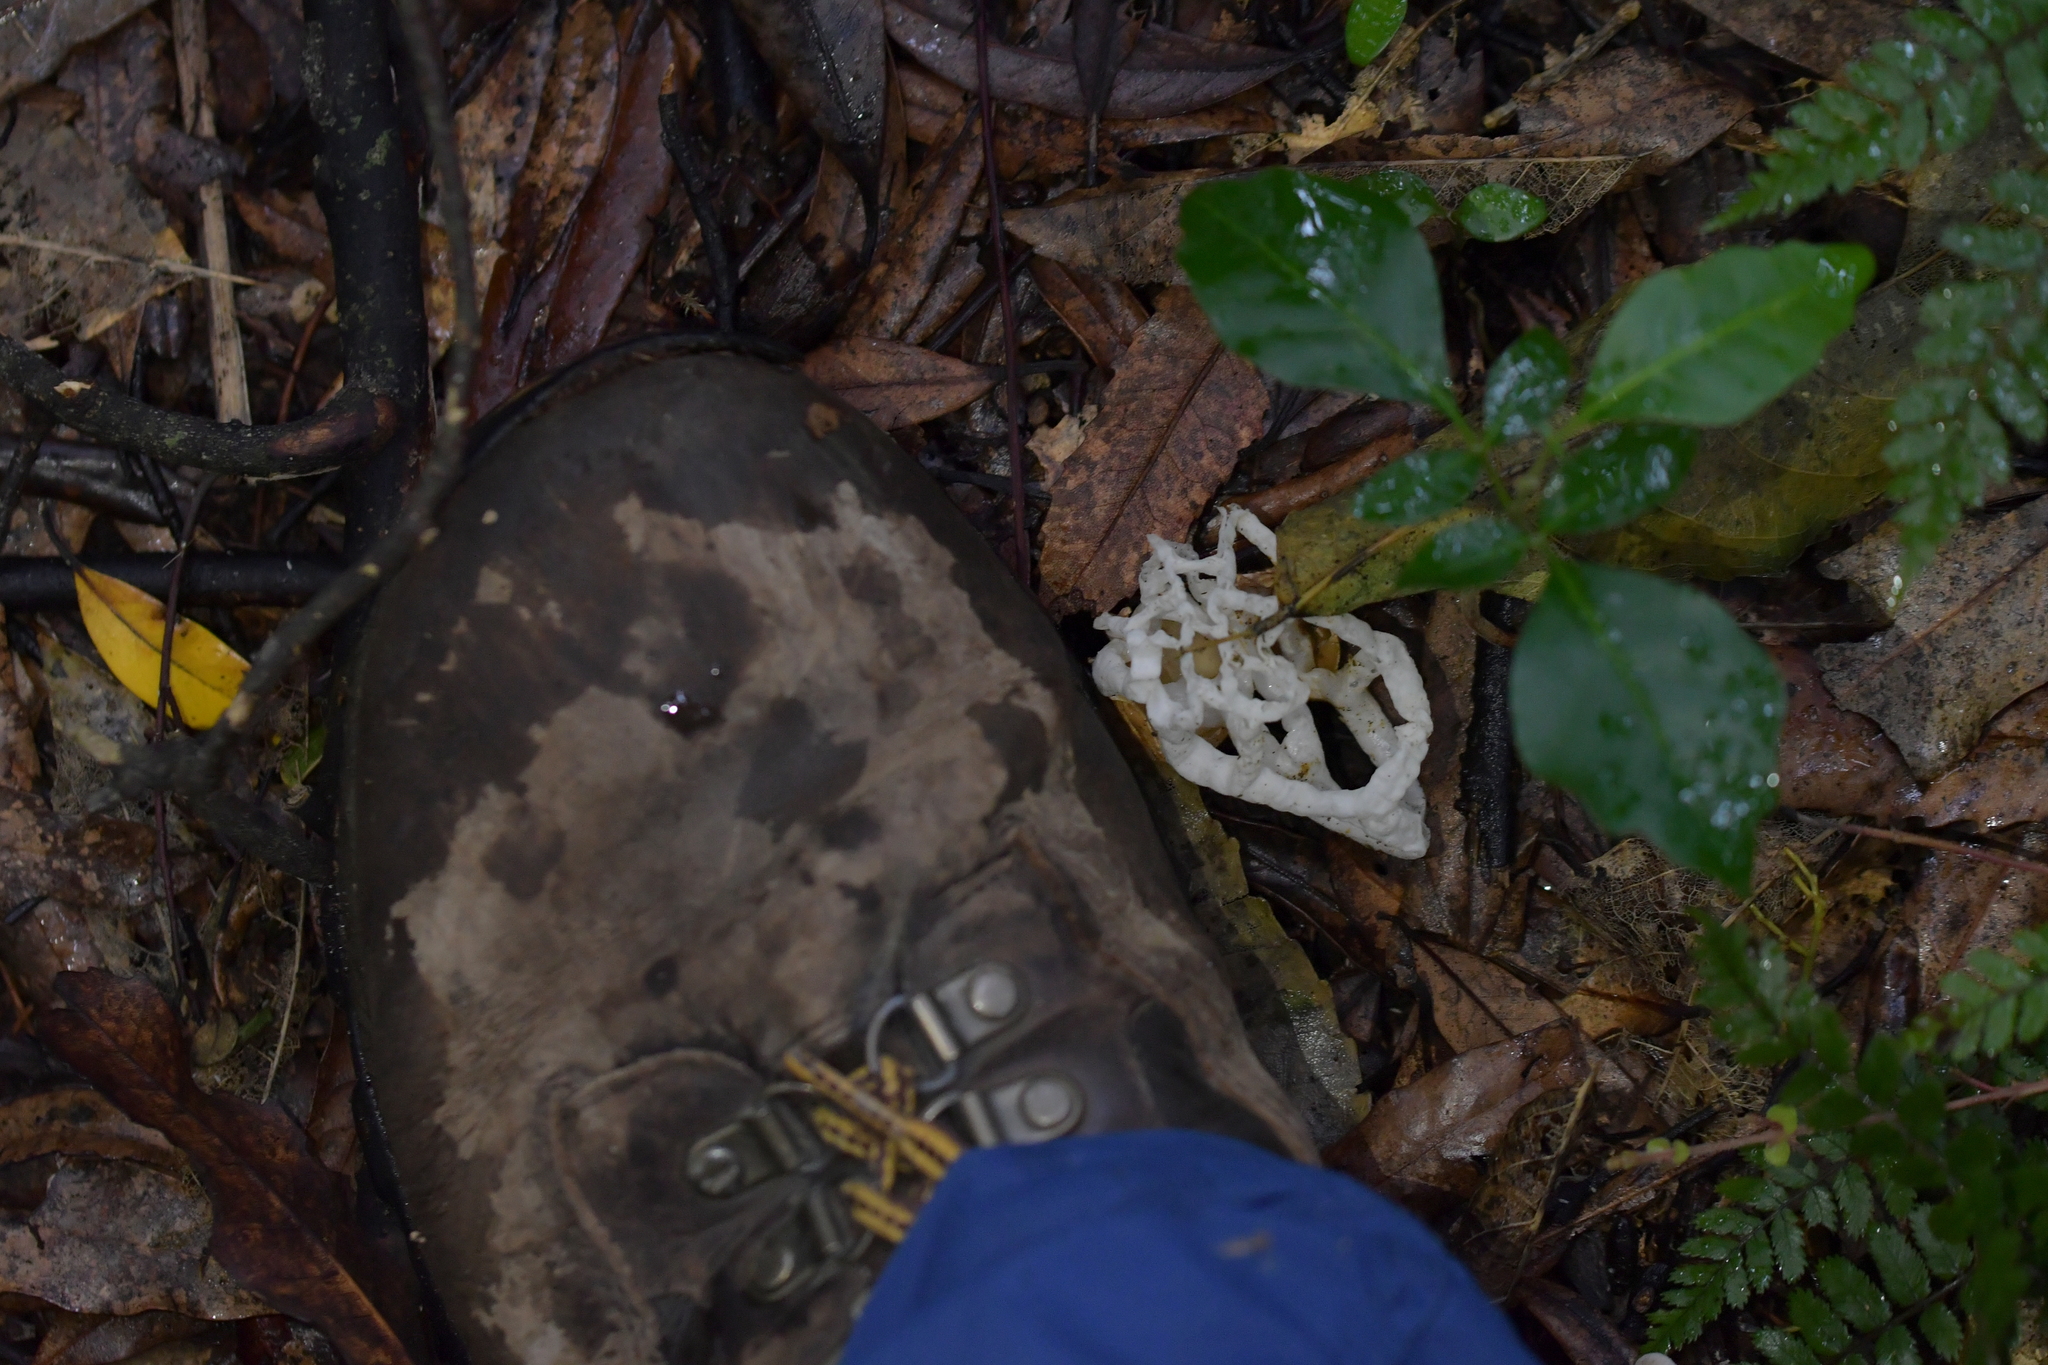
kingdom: Fungi
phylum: Basidiomycota
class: Agaricomycetes
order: Phallales
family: Phallaceae
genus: Ileodictyon
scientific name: Ileodictyon cibarium
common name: Basket fungus
